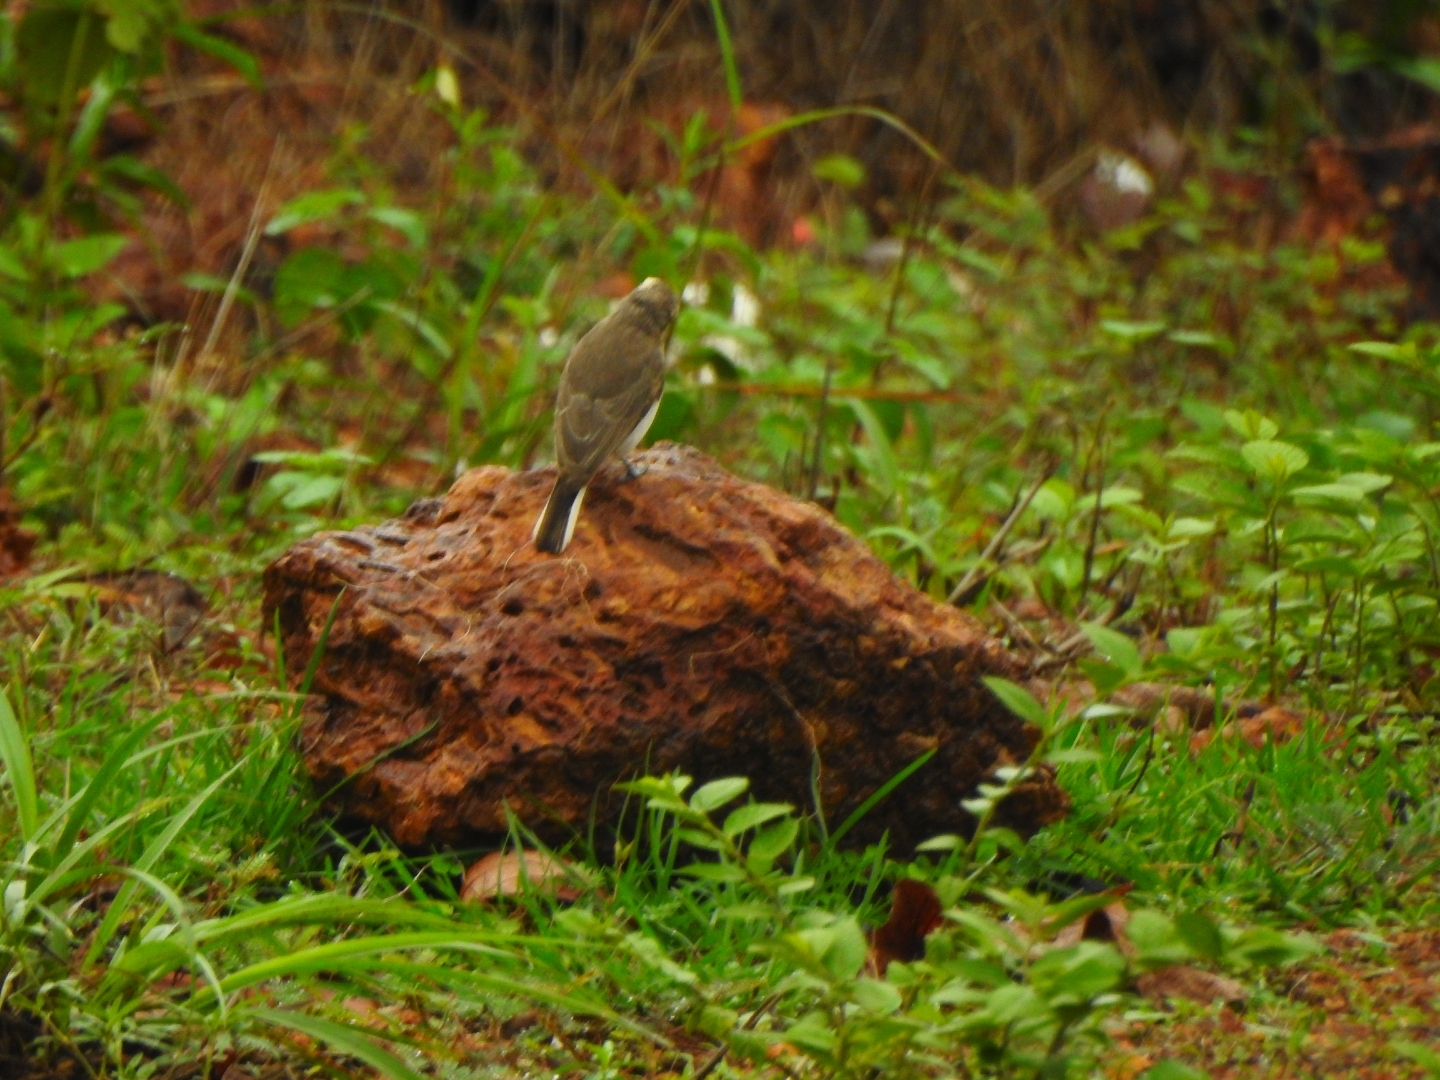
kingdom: Animalia
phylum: Chordata
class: Aves
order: Passeriformes
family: Tephrodornithidae
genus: Tephrodornis
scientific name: Tephrodornis pondicerianus
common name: Common woodshrike
